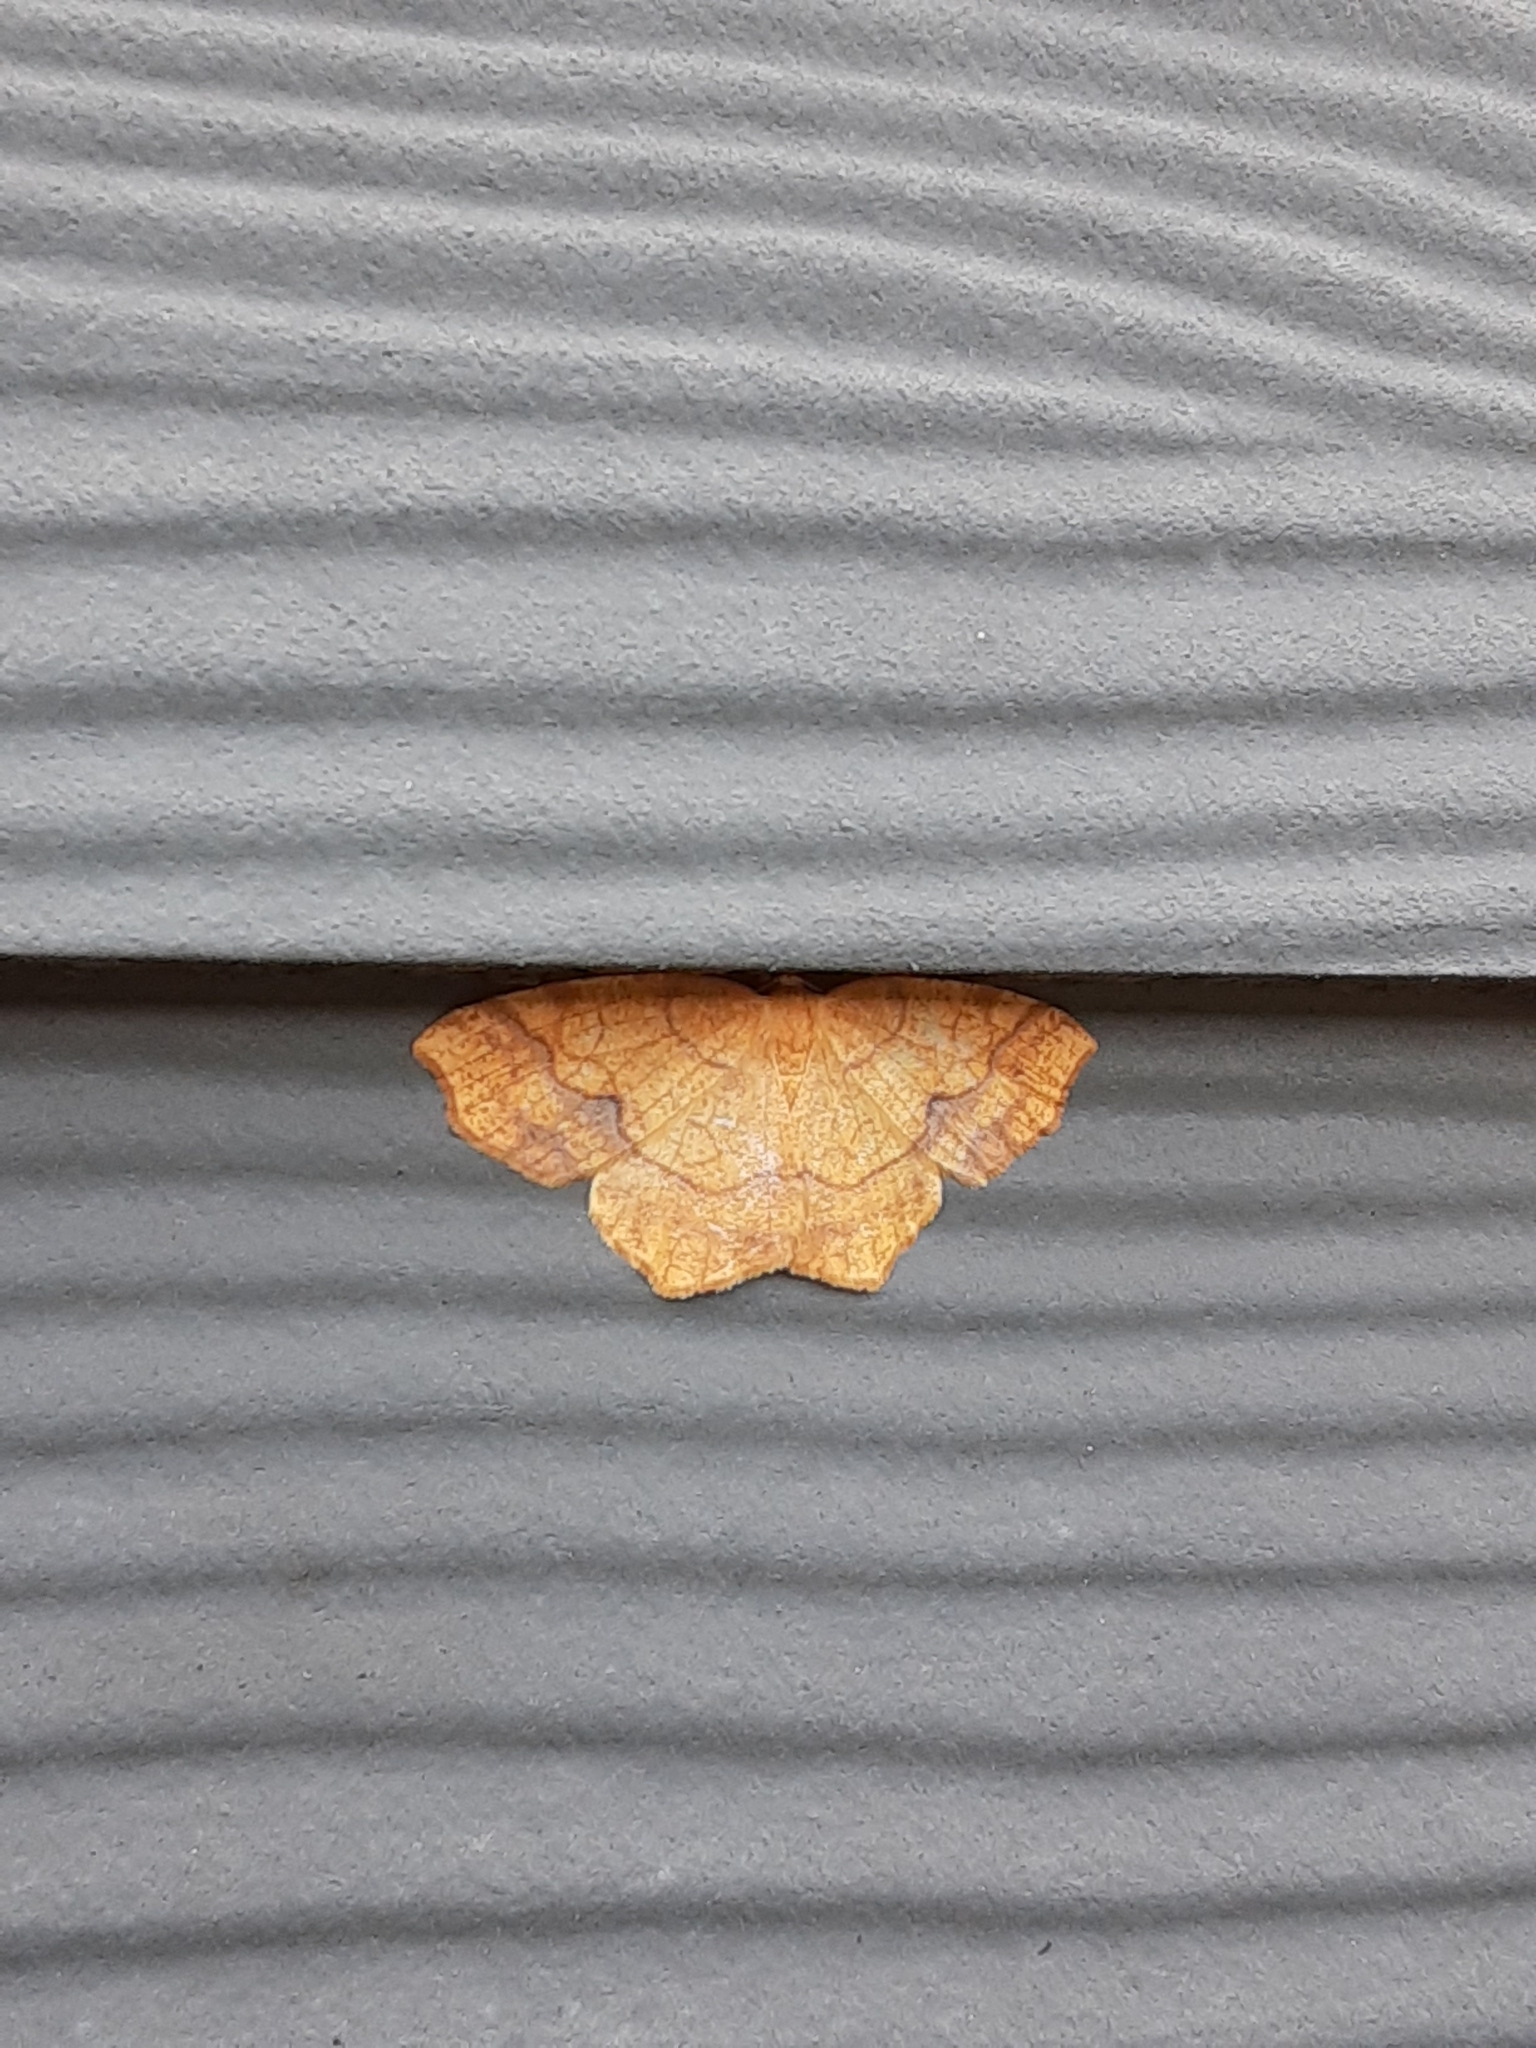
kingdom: Animalia
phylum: Arthropoda
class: Insecta
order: Lepidoptera
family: Geometridae
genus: Besma
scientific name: Besma quercivoraria
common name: Oak besma
